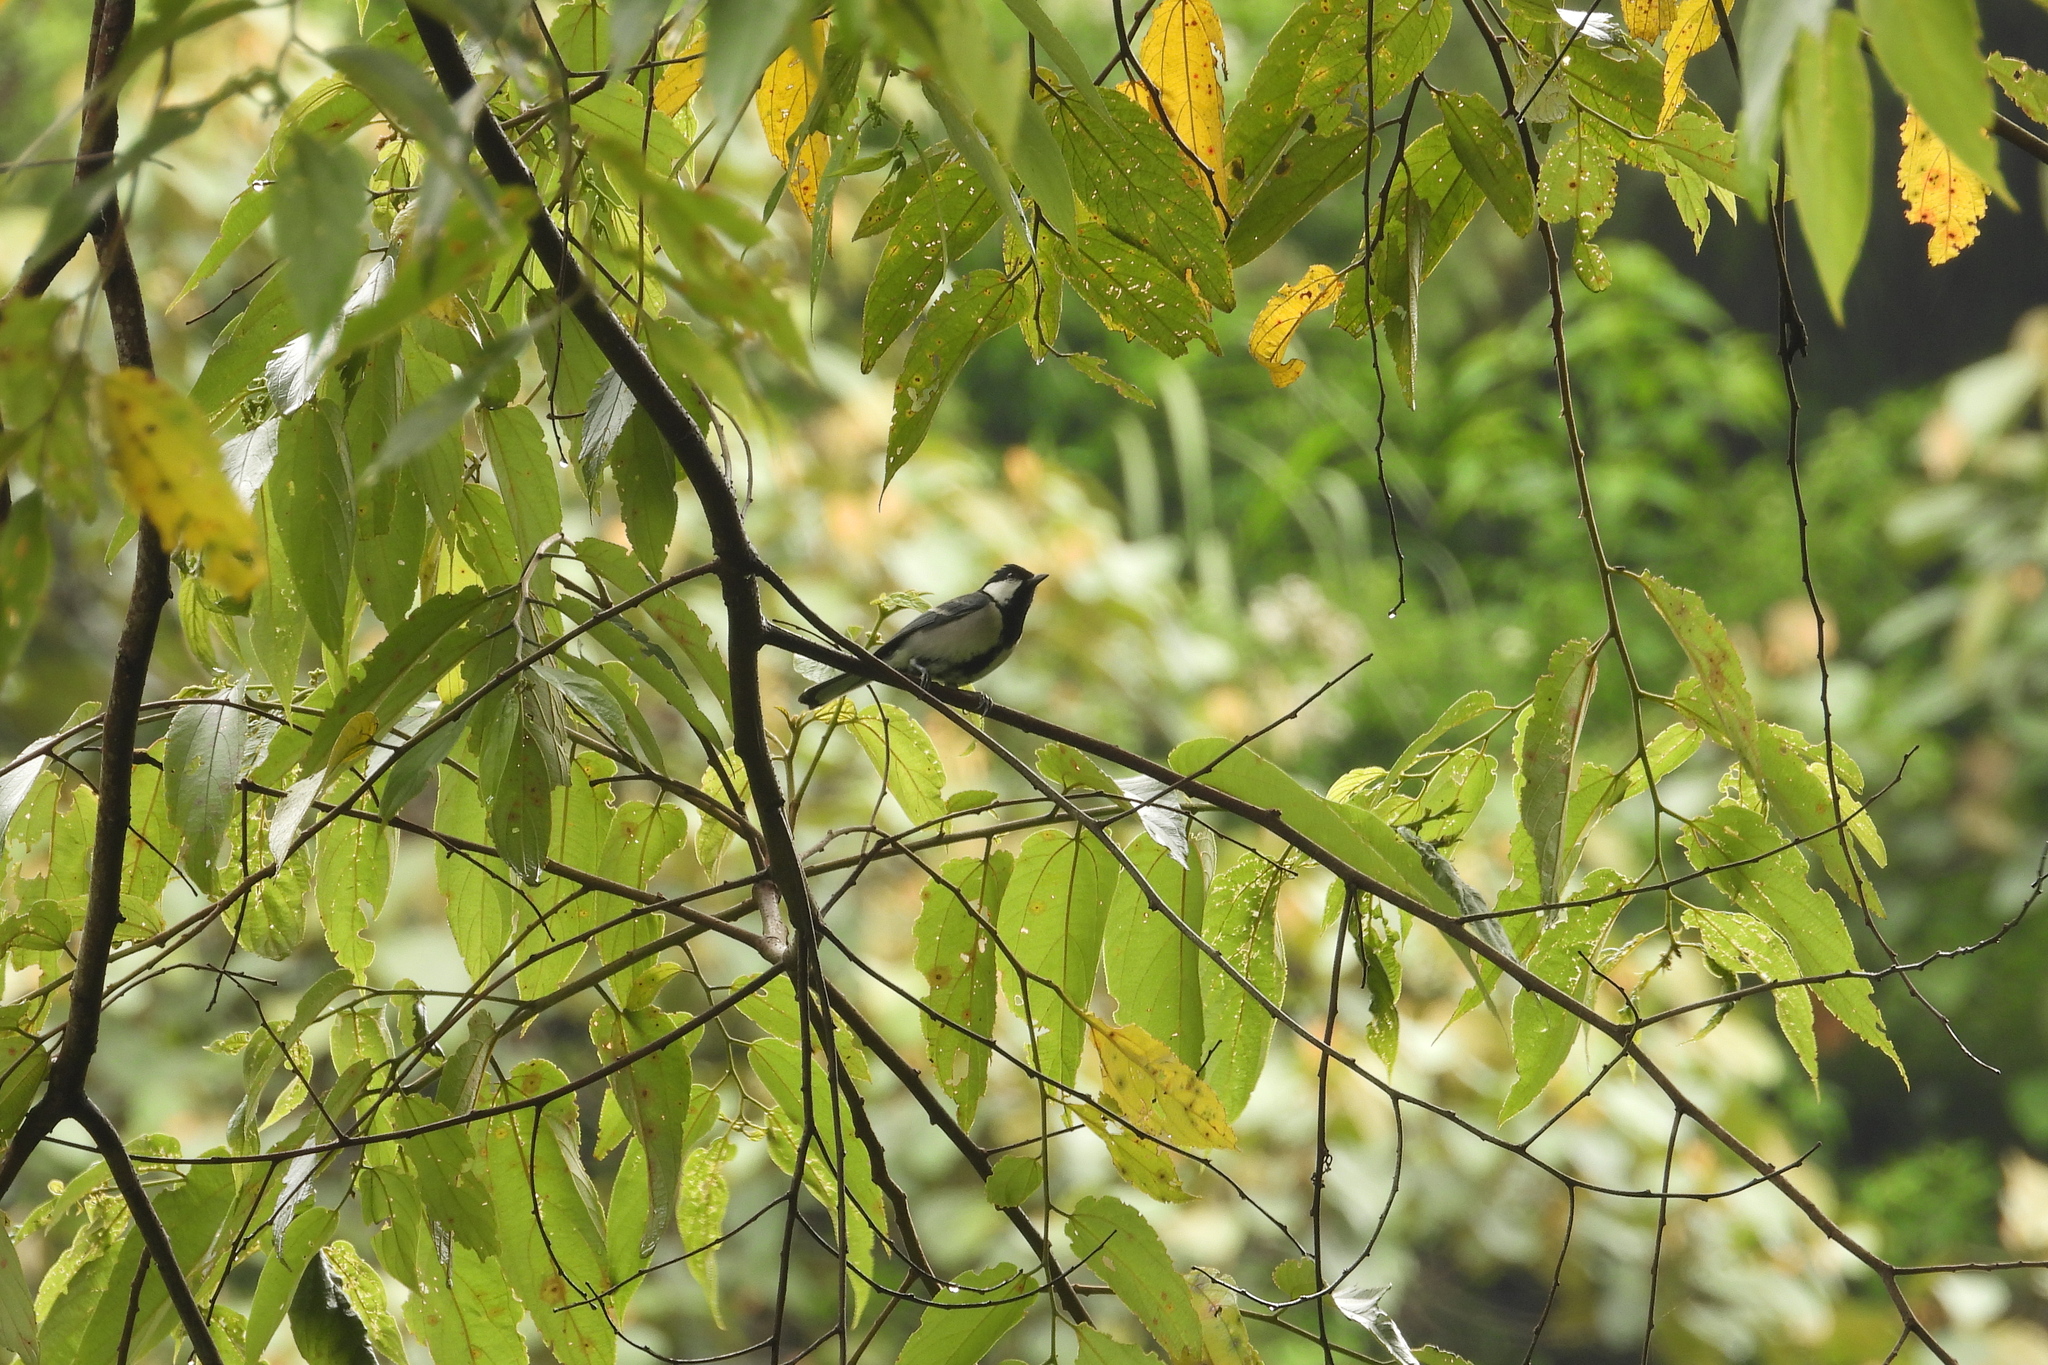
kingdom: Animalia
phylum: Chordata
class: Aves
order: Passeriformes
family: Paridae
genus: Parus
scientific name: Parus cinereus
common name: Cinereous tit
